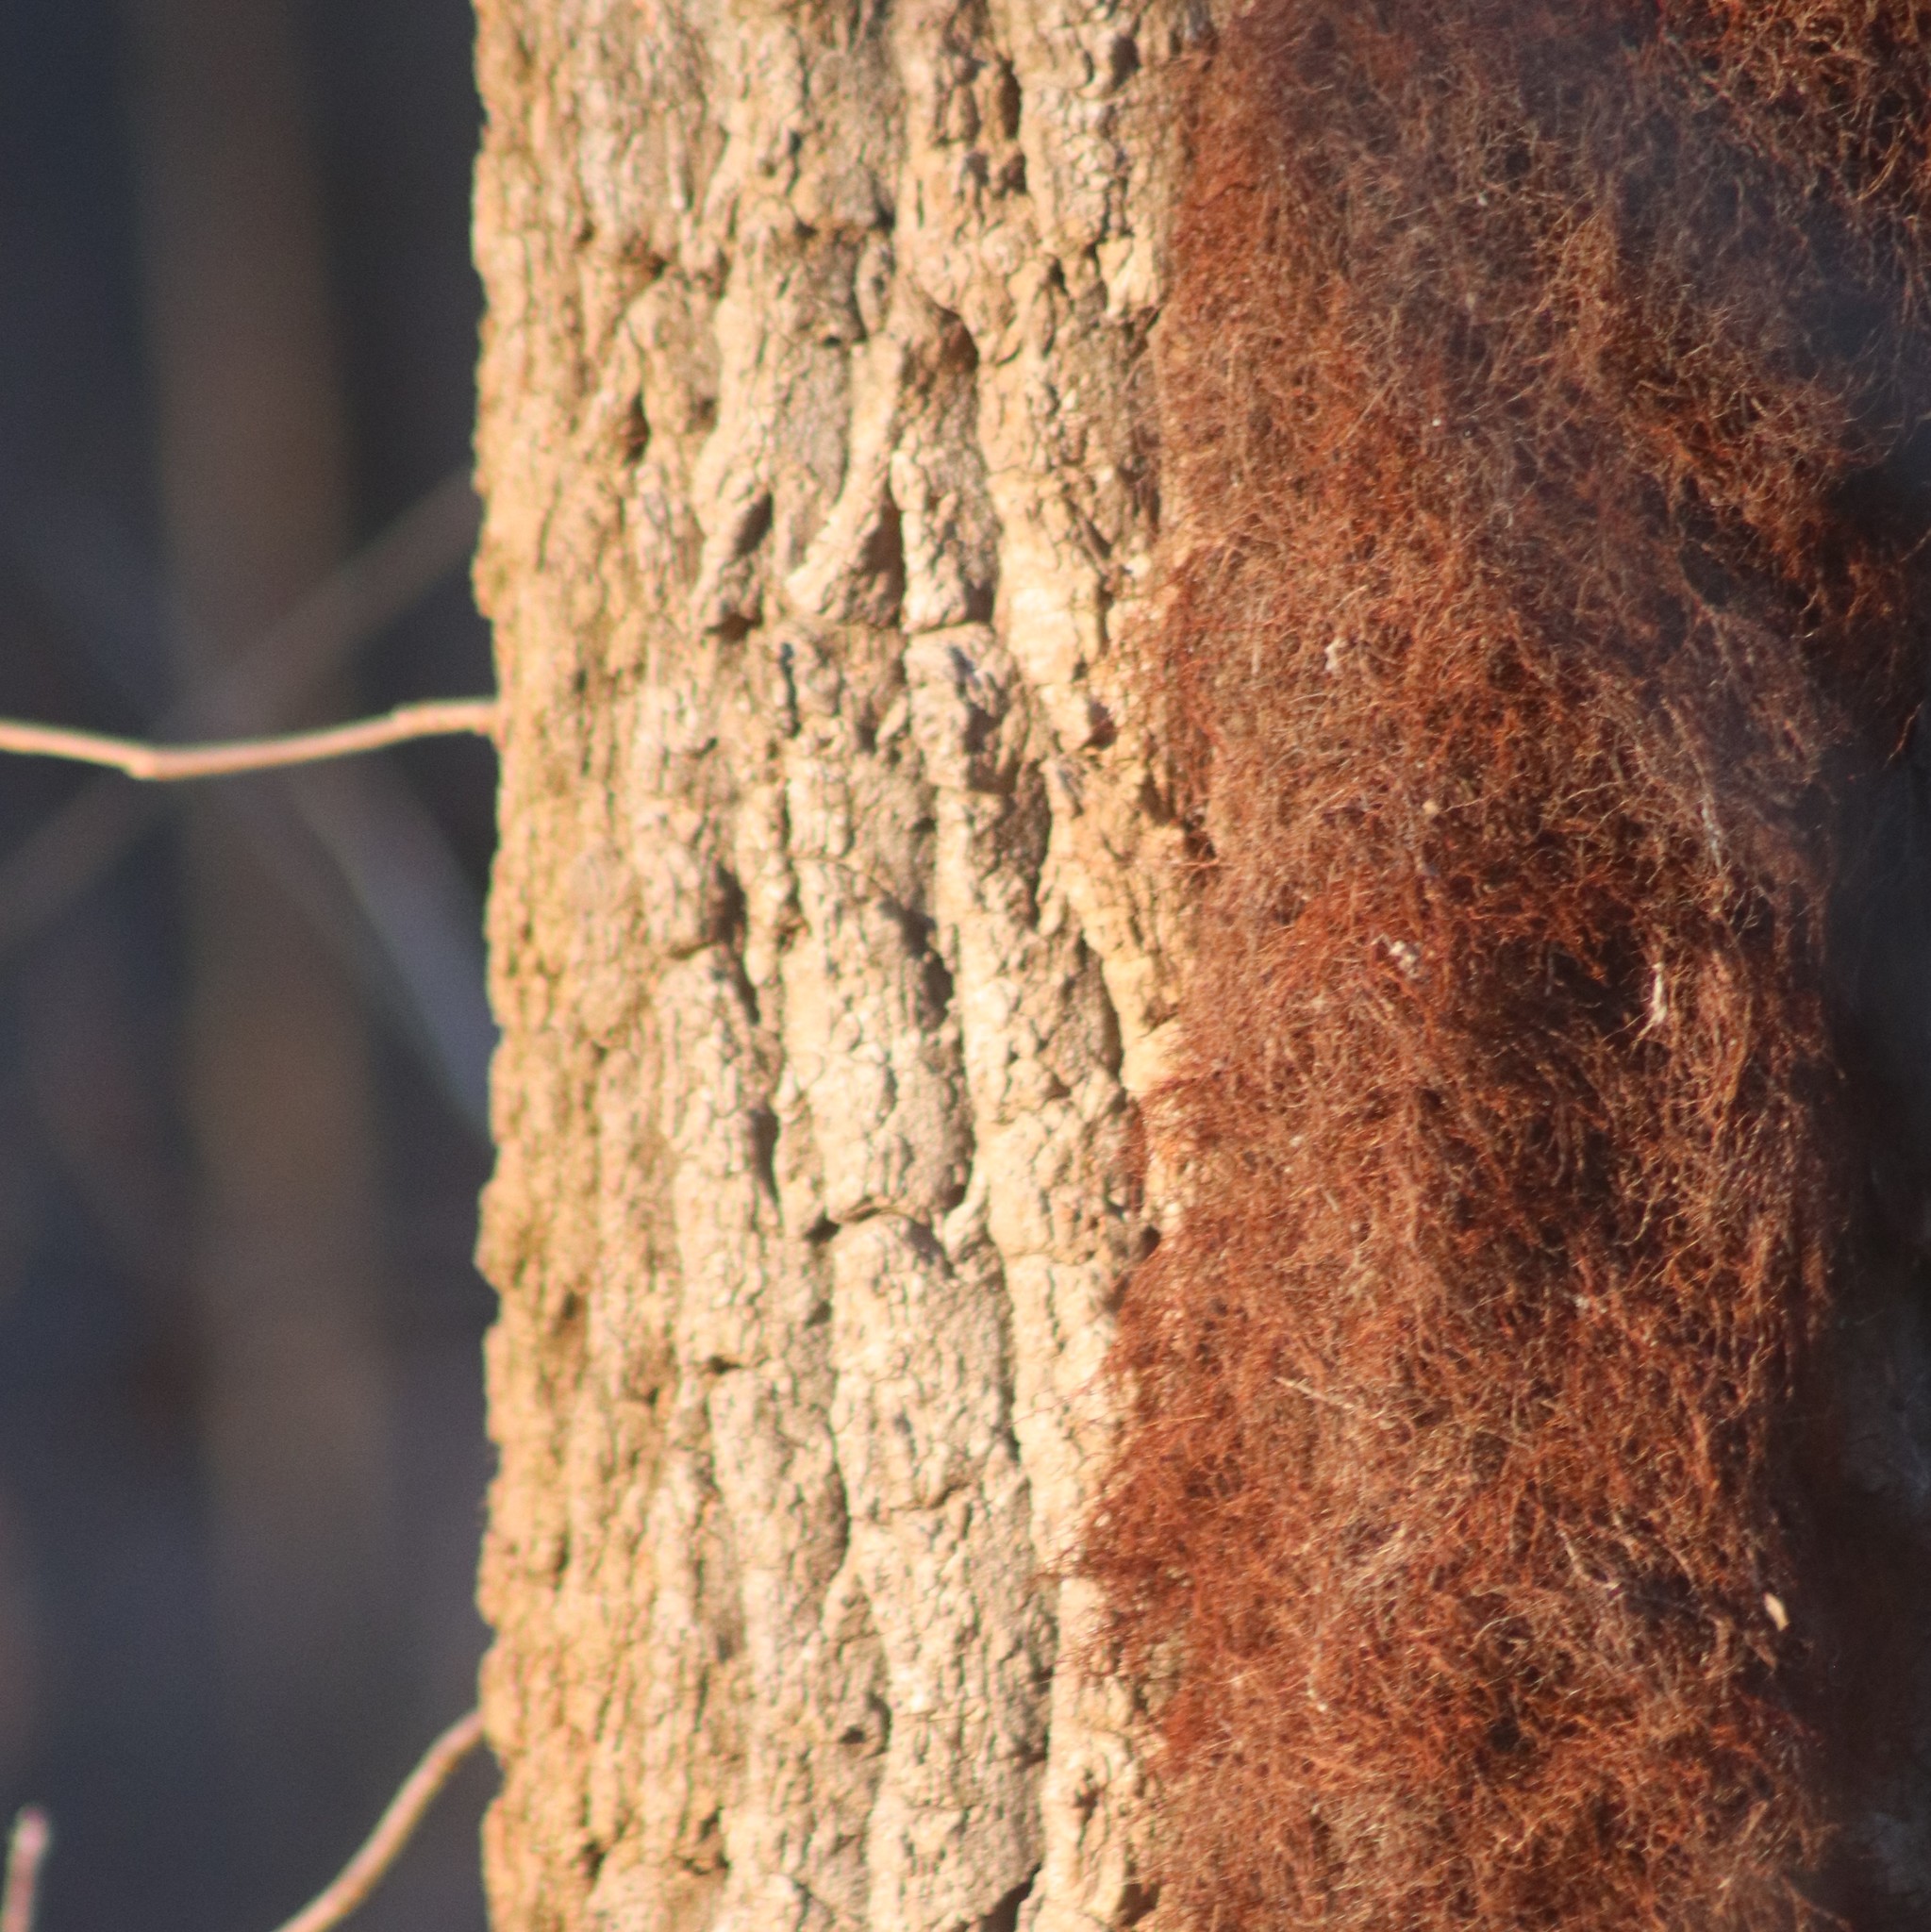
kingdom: Plantae
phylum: Tracheophyta
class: Magnoliopsida
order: Sapindales
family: Anacardiaceae
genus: Toxicodendron
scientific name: Toxicodendron radicans
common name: Poison ivy
